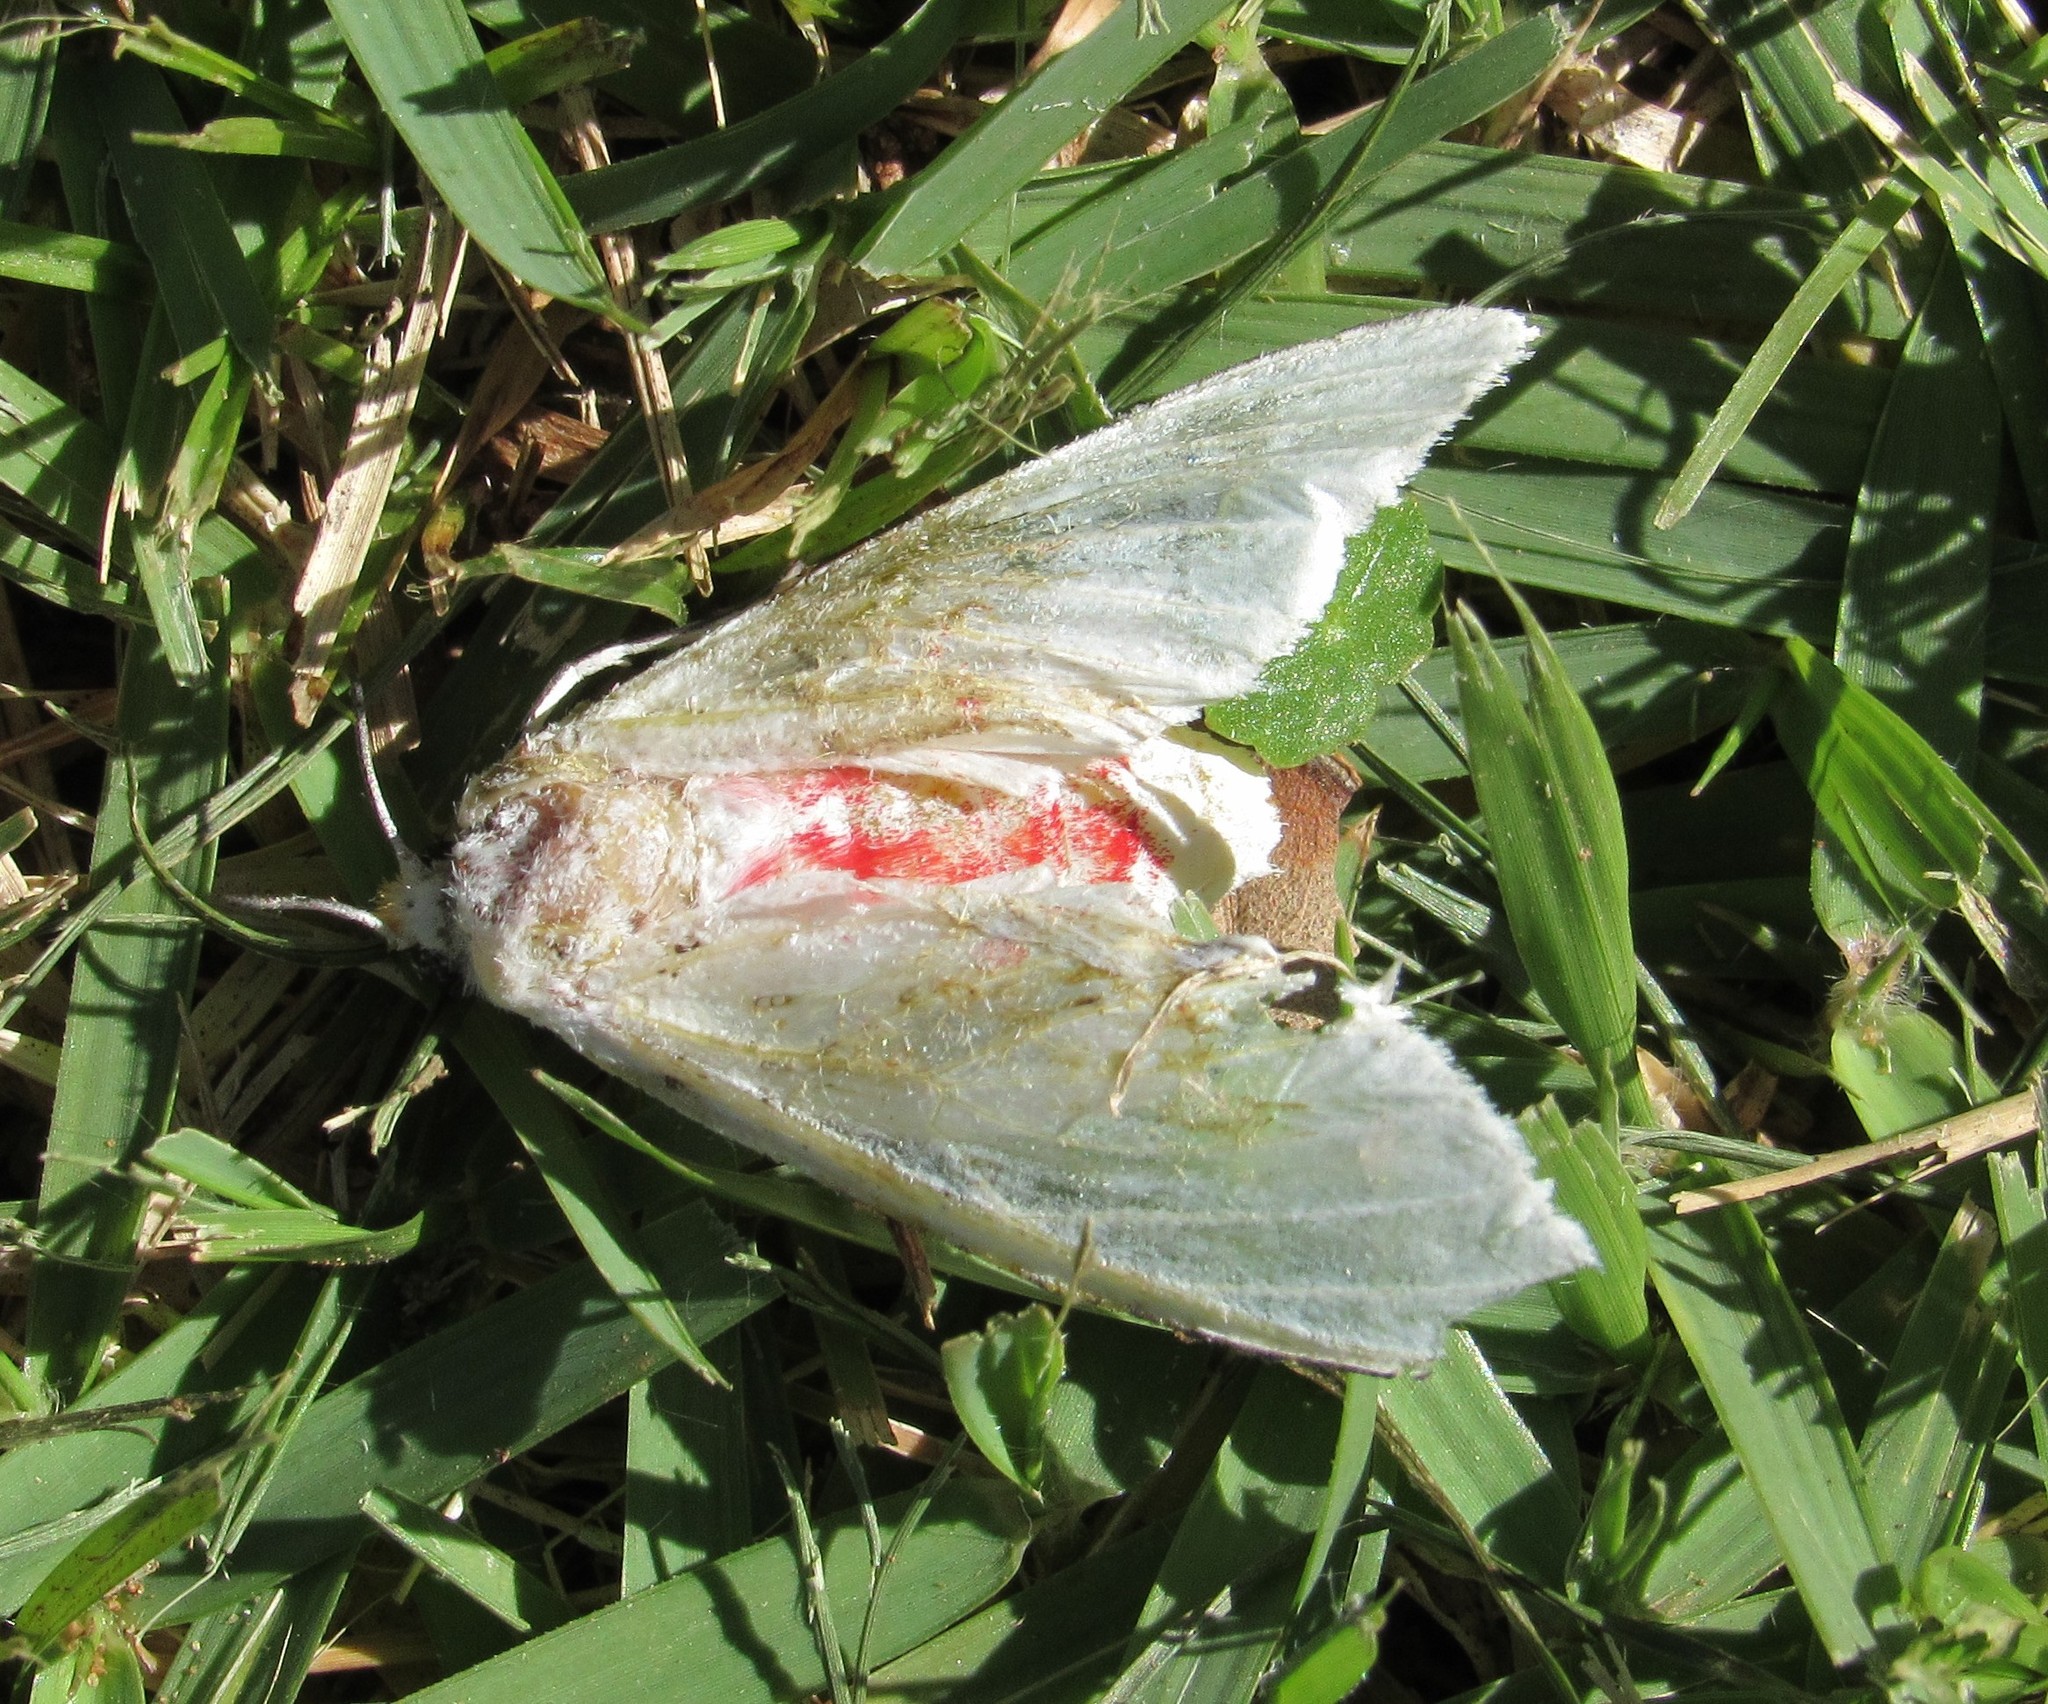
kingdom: Animalia
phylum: Arthropoda
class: Insecta
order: Lepidoptera
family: Erebidae
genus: Eupseudosoma
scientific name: Eupseudosoma involuta
